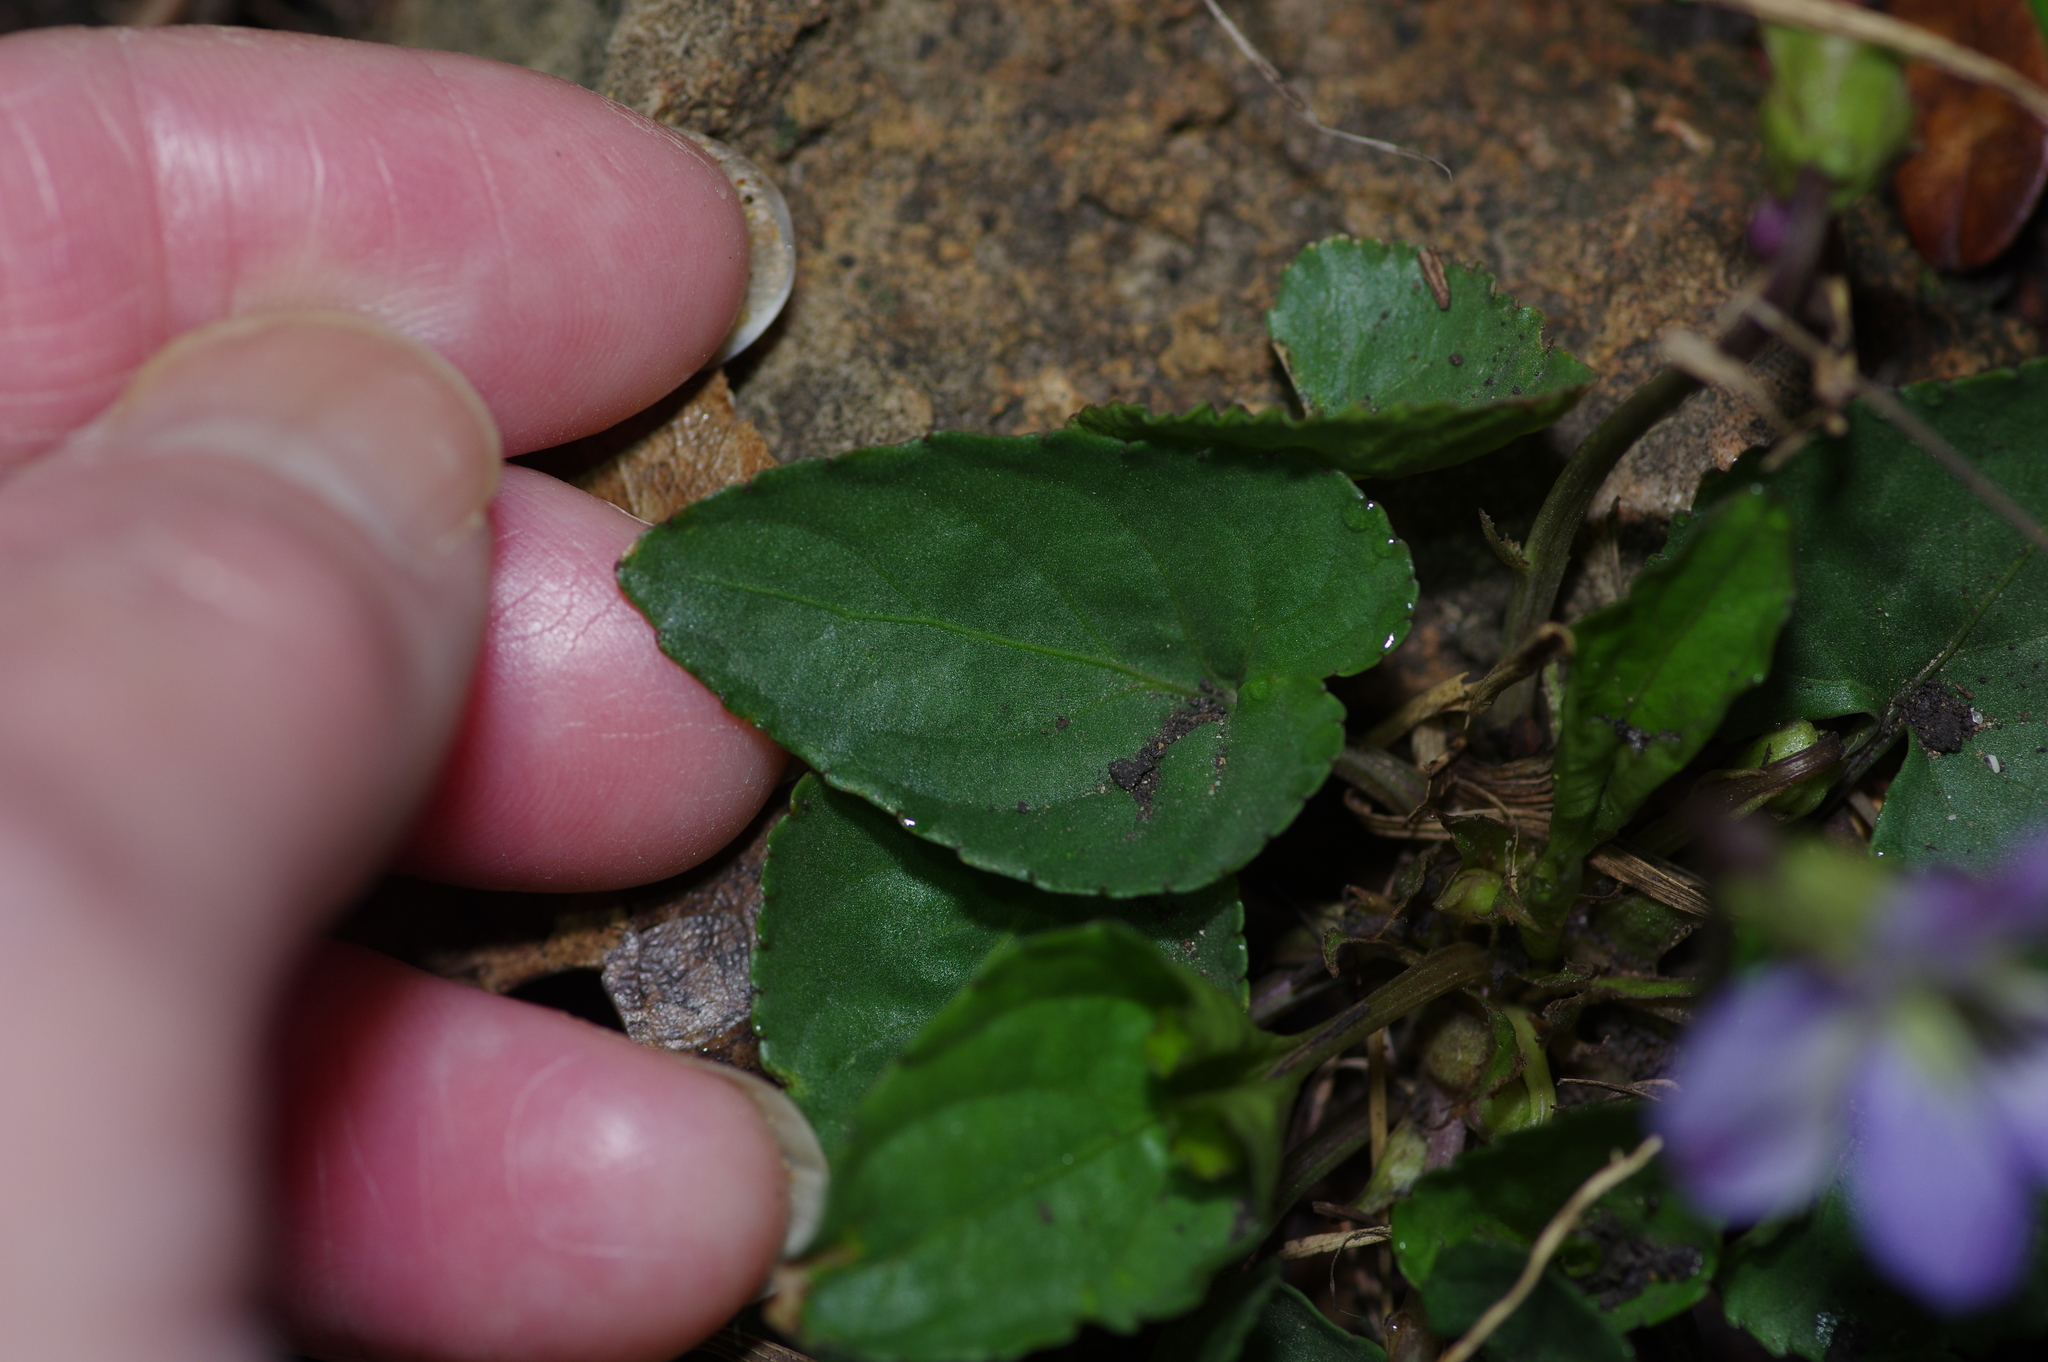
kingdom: Plantae
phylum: Tracheophyta
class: Magnoliopsida
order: Malpighiales
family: Violaceae
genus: Viola
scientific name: Viola missouriensis
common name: Missouri violet
